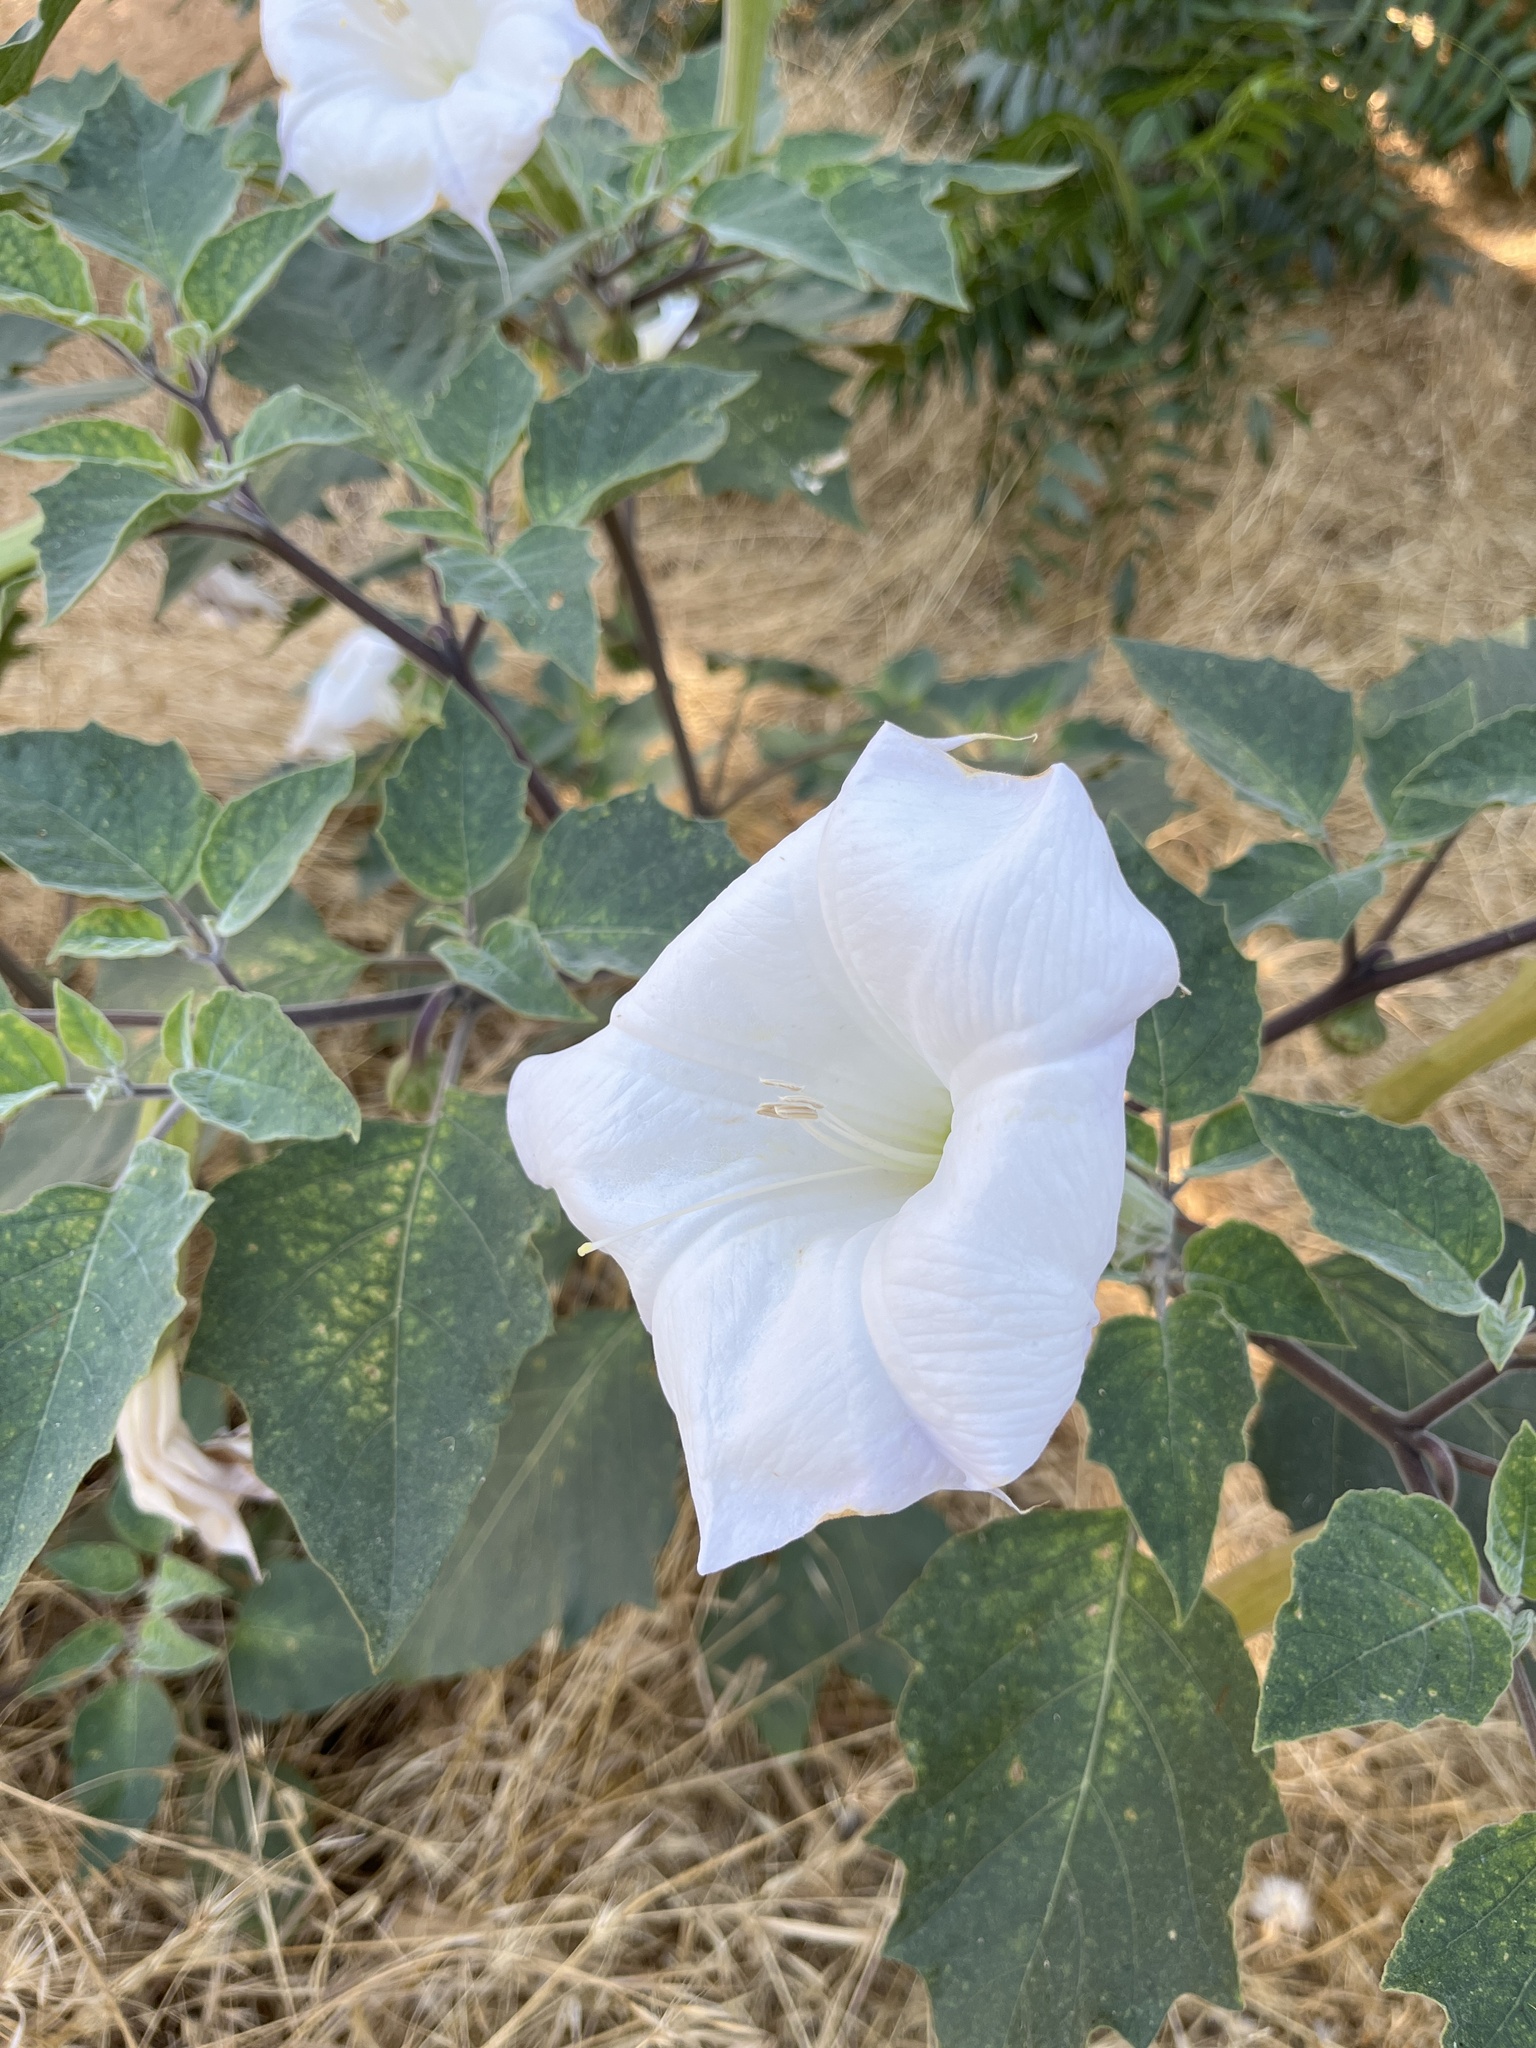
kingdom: Plantae
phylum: Tracheophyta
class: Magnoliopsida
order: Solanales
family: Solanaceae
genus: Datura
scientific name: Datura wrightii
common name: Sacred thorn-apple
